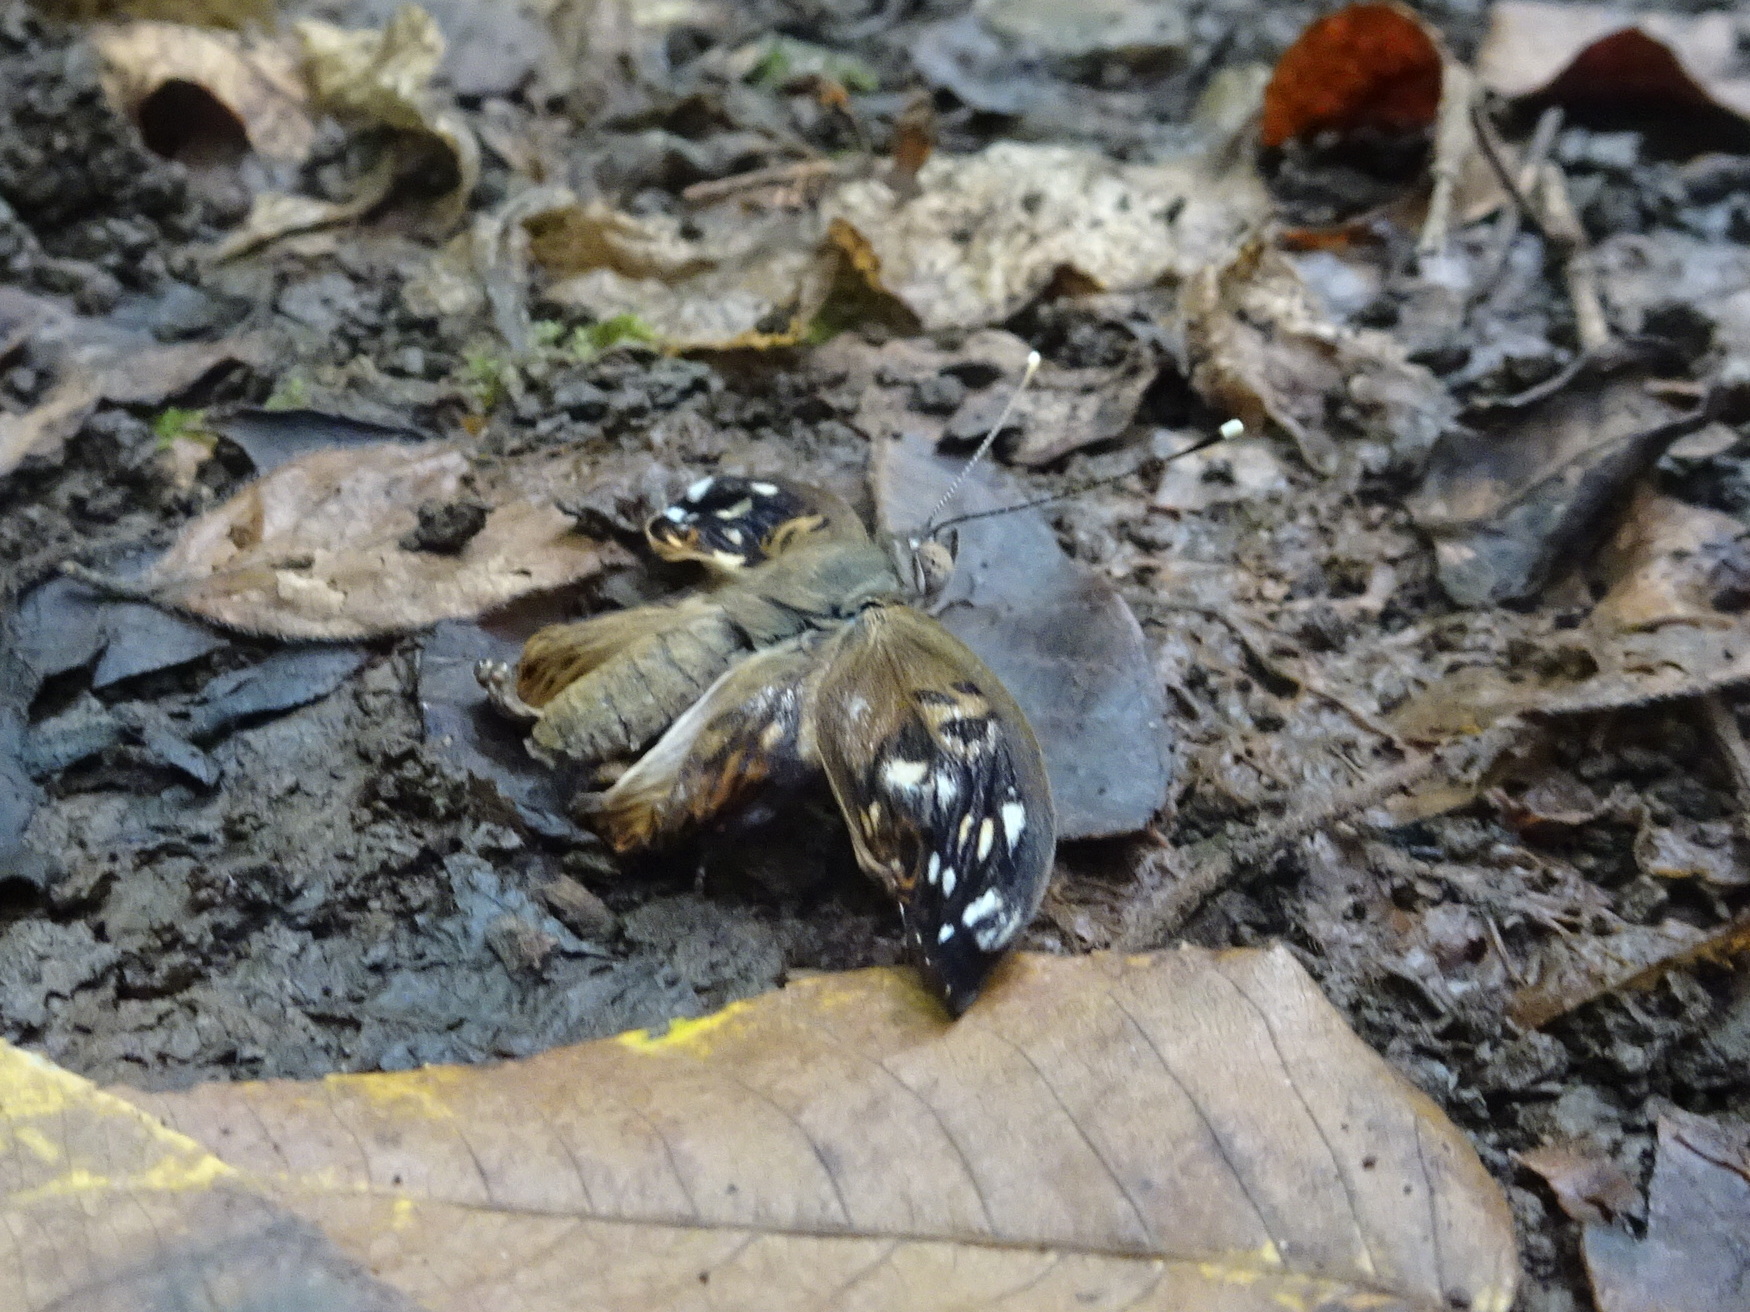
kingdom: Animalia
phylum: Arthropoda
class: Insecta
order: Lepidoptera
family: Nymphalidae
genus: Asterocampa
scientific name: Asterocampa celtis
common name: Hackberry emperor
